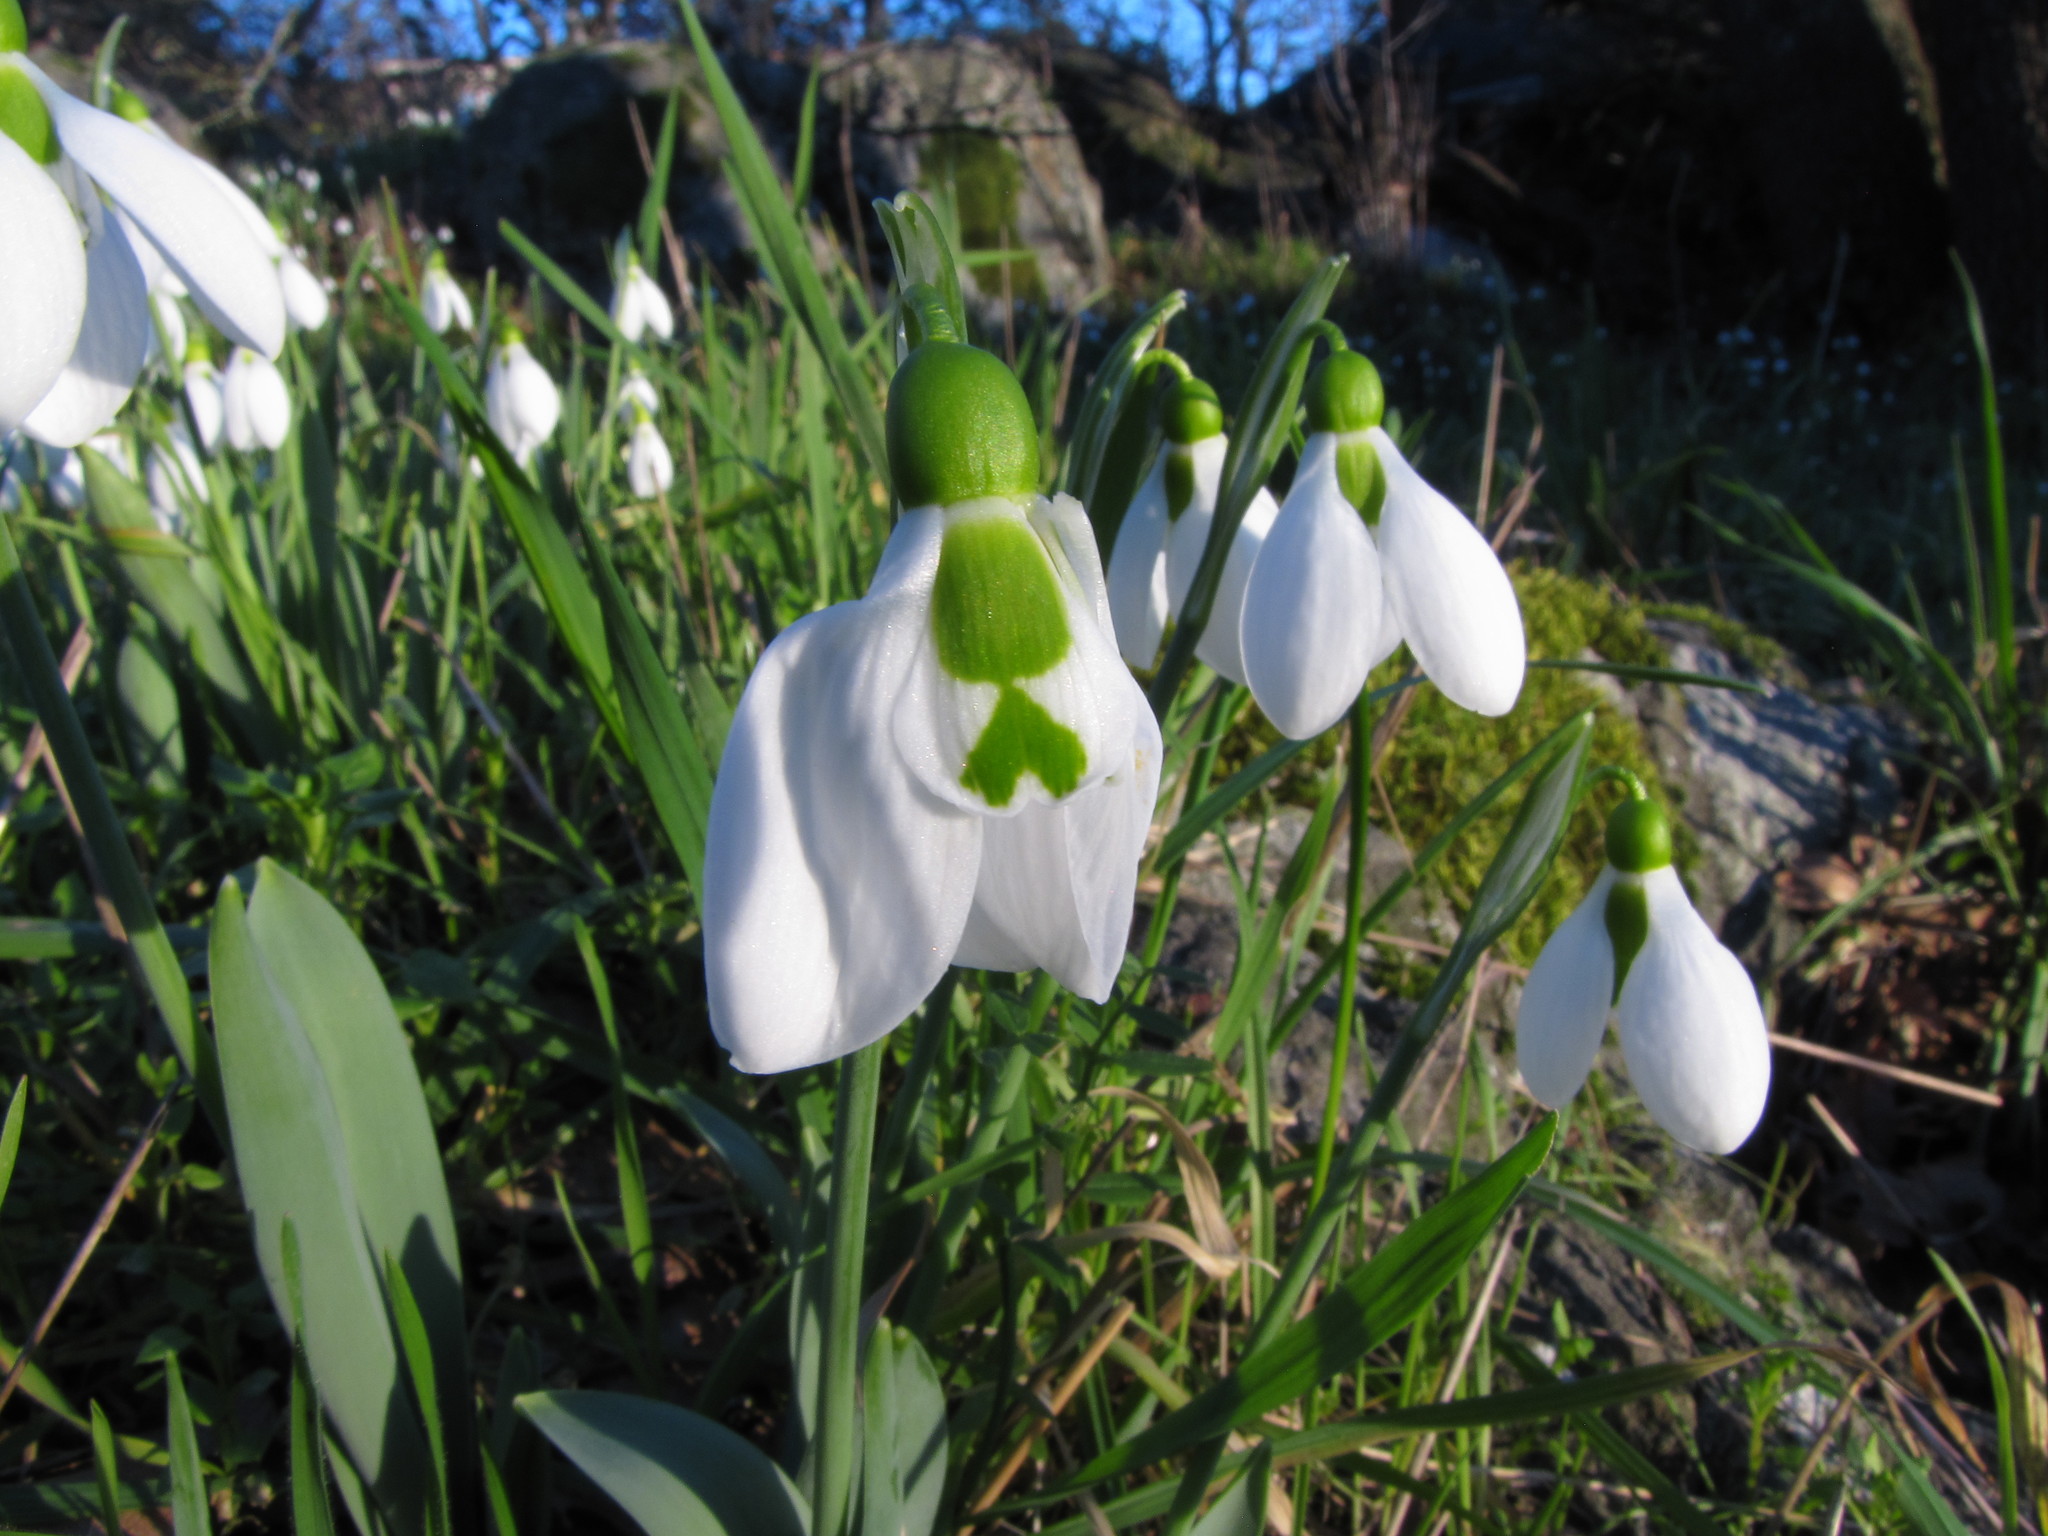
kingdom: Plantae
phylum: Tracheophyta
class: Liliopsida
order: Asparagales
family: Amaryllidaceae
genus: Galanthus
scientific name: Galanthus elwesii
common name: Greater snowdrop
